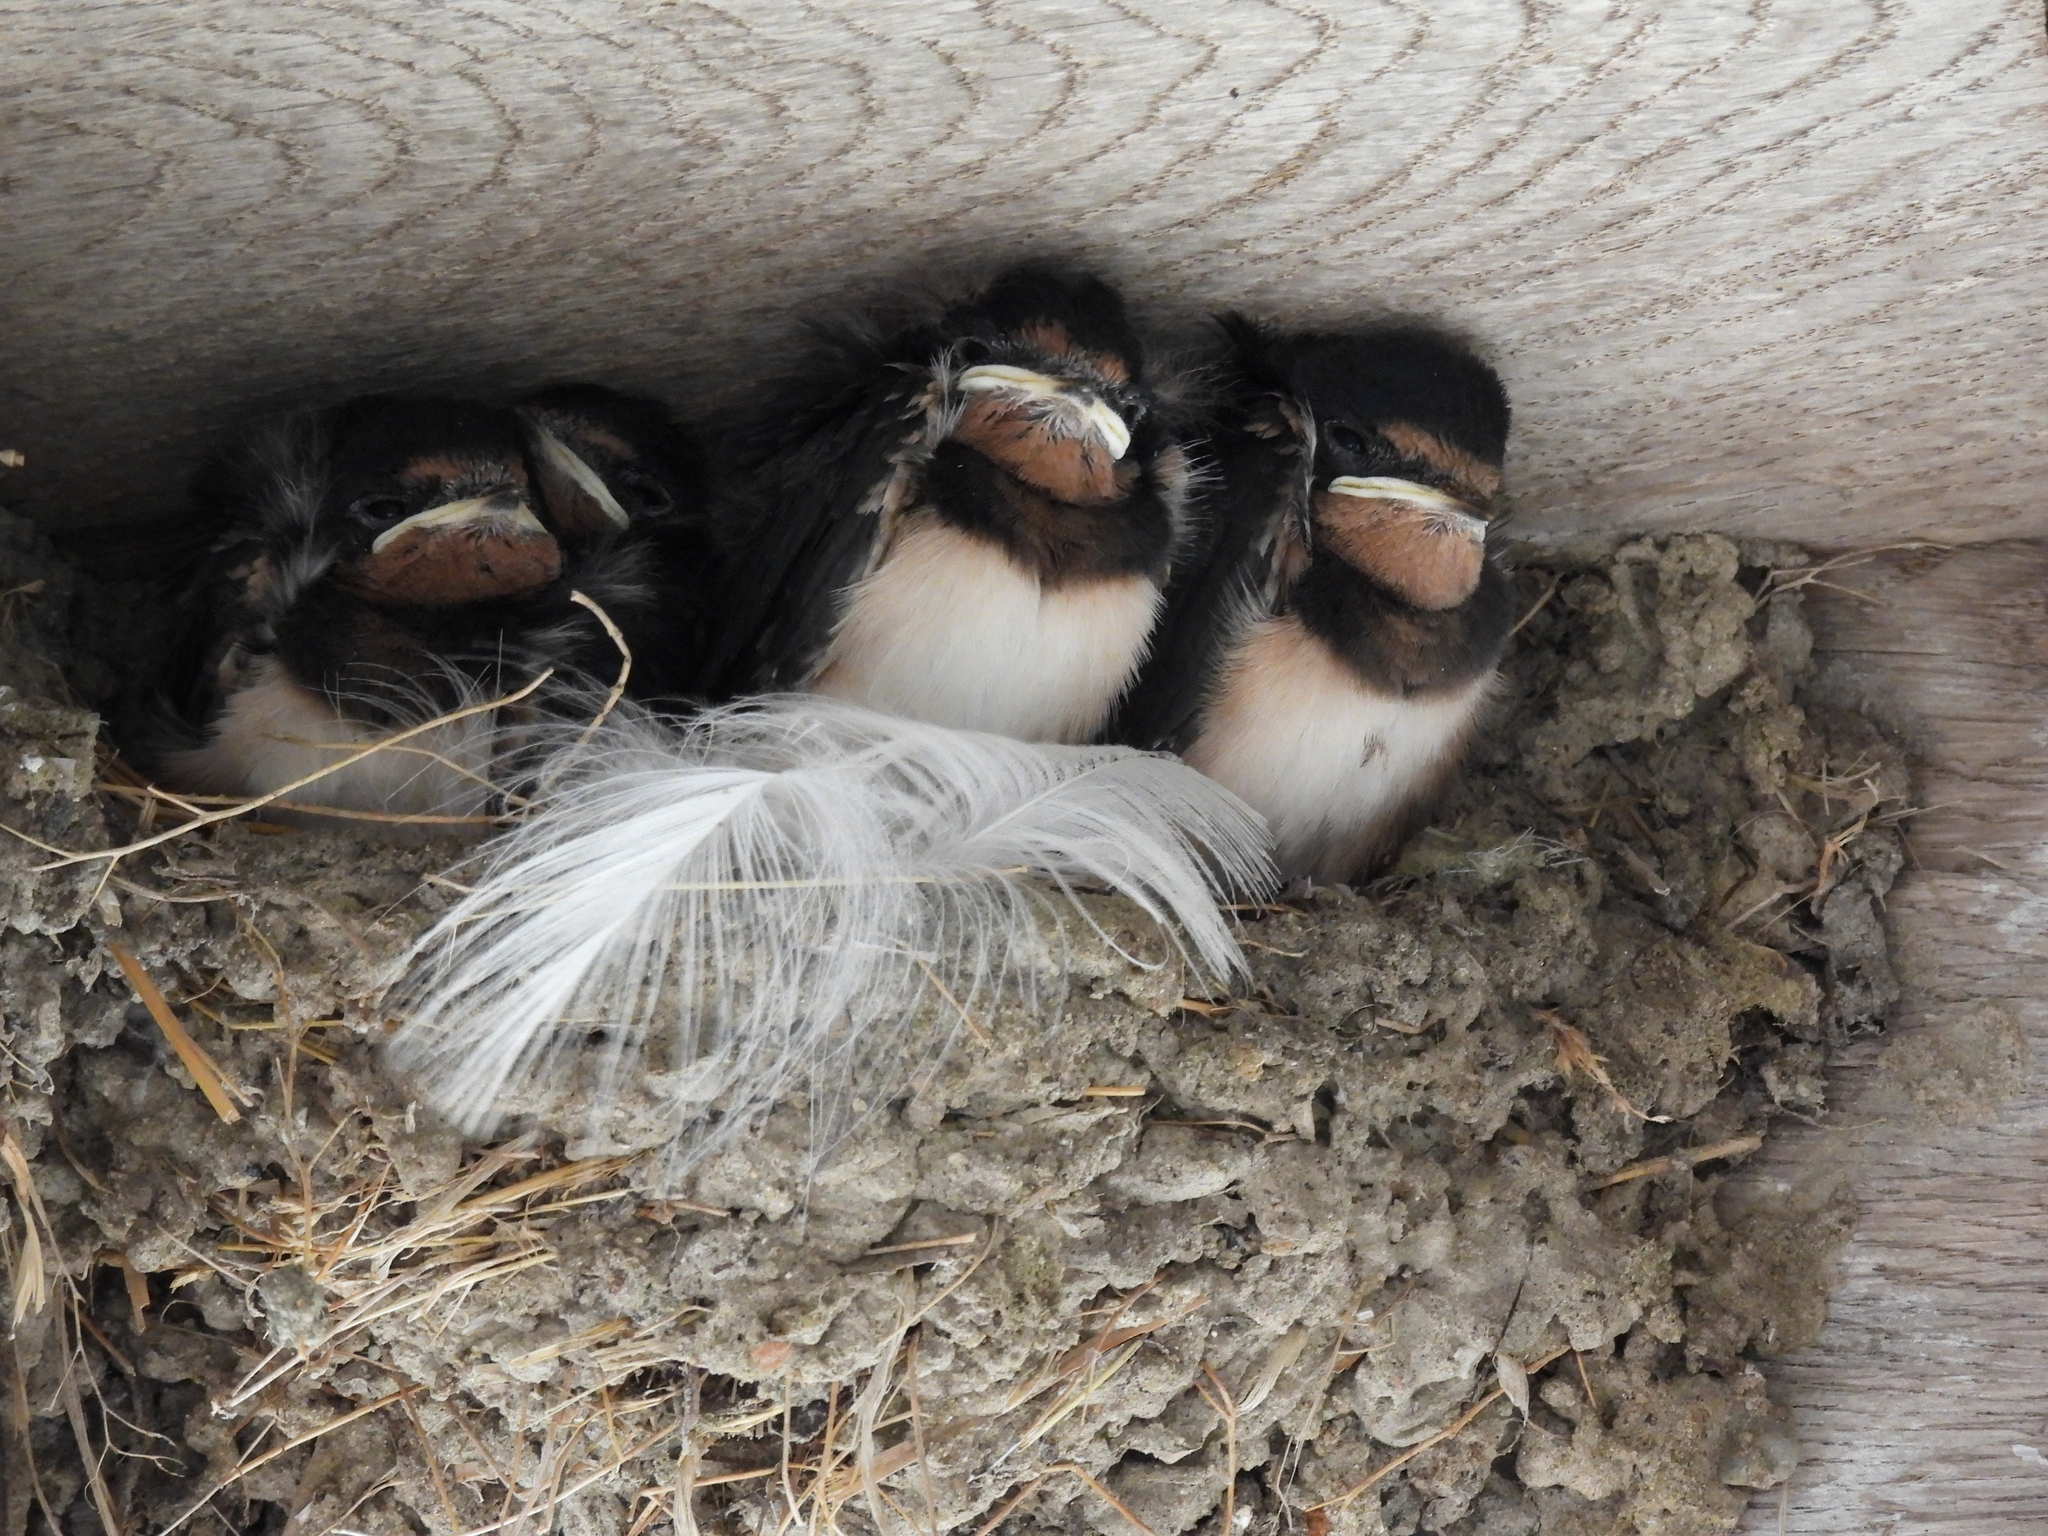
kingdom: Animalia
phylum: Chordata
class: Aves
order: Passeriformes
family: Hirundinidae
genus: Hirundo
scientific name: Hirundo rustica
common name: Barn swallow
